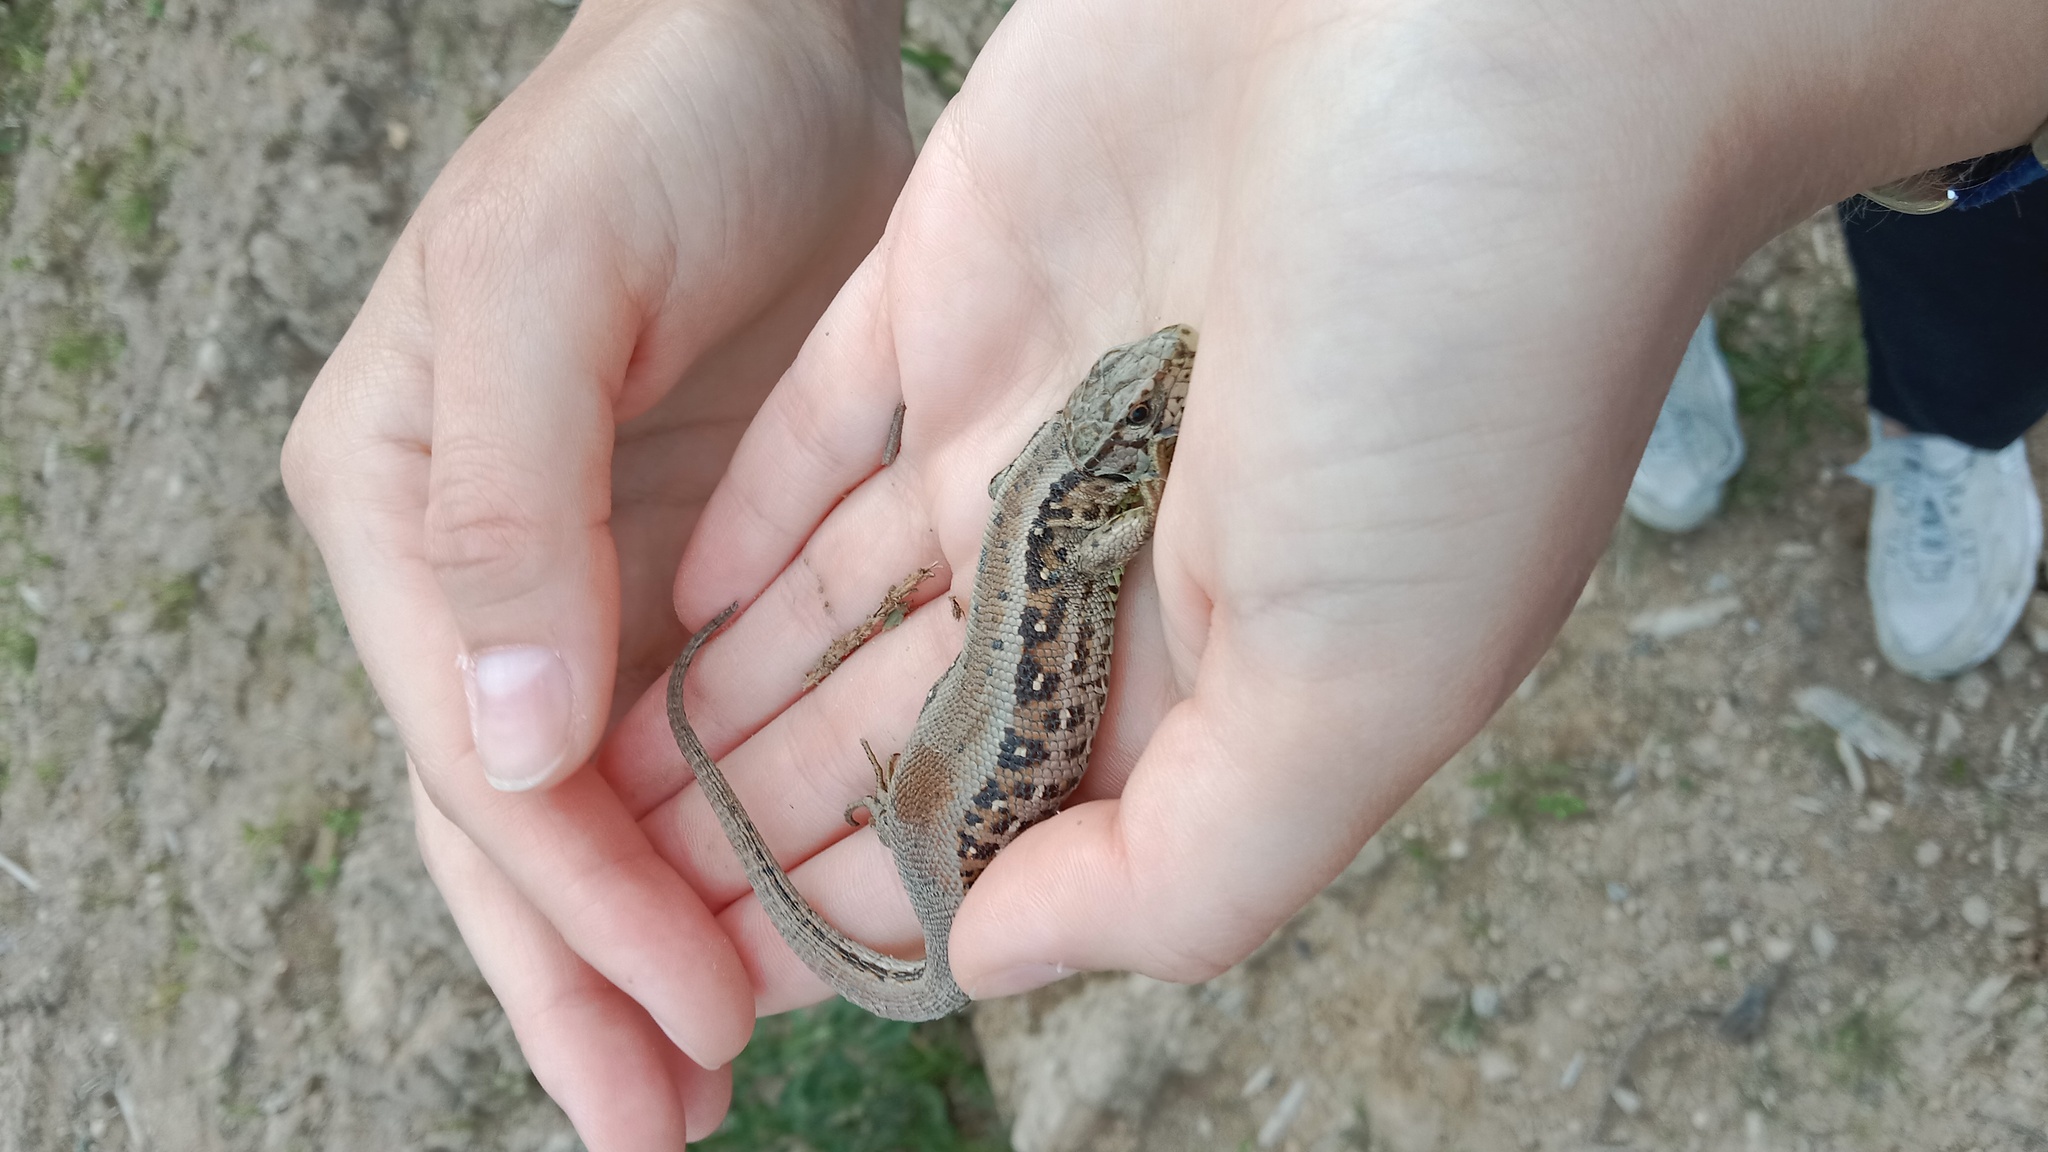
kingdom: Animalia
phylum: Chordata
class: Squamata
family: Lacertidae
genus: Lacerta
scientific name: Lacerta agilis
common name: Sand lizard
